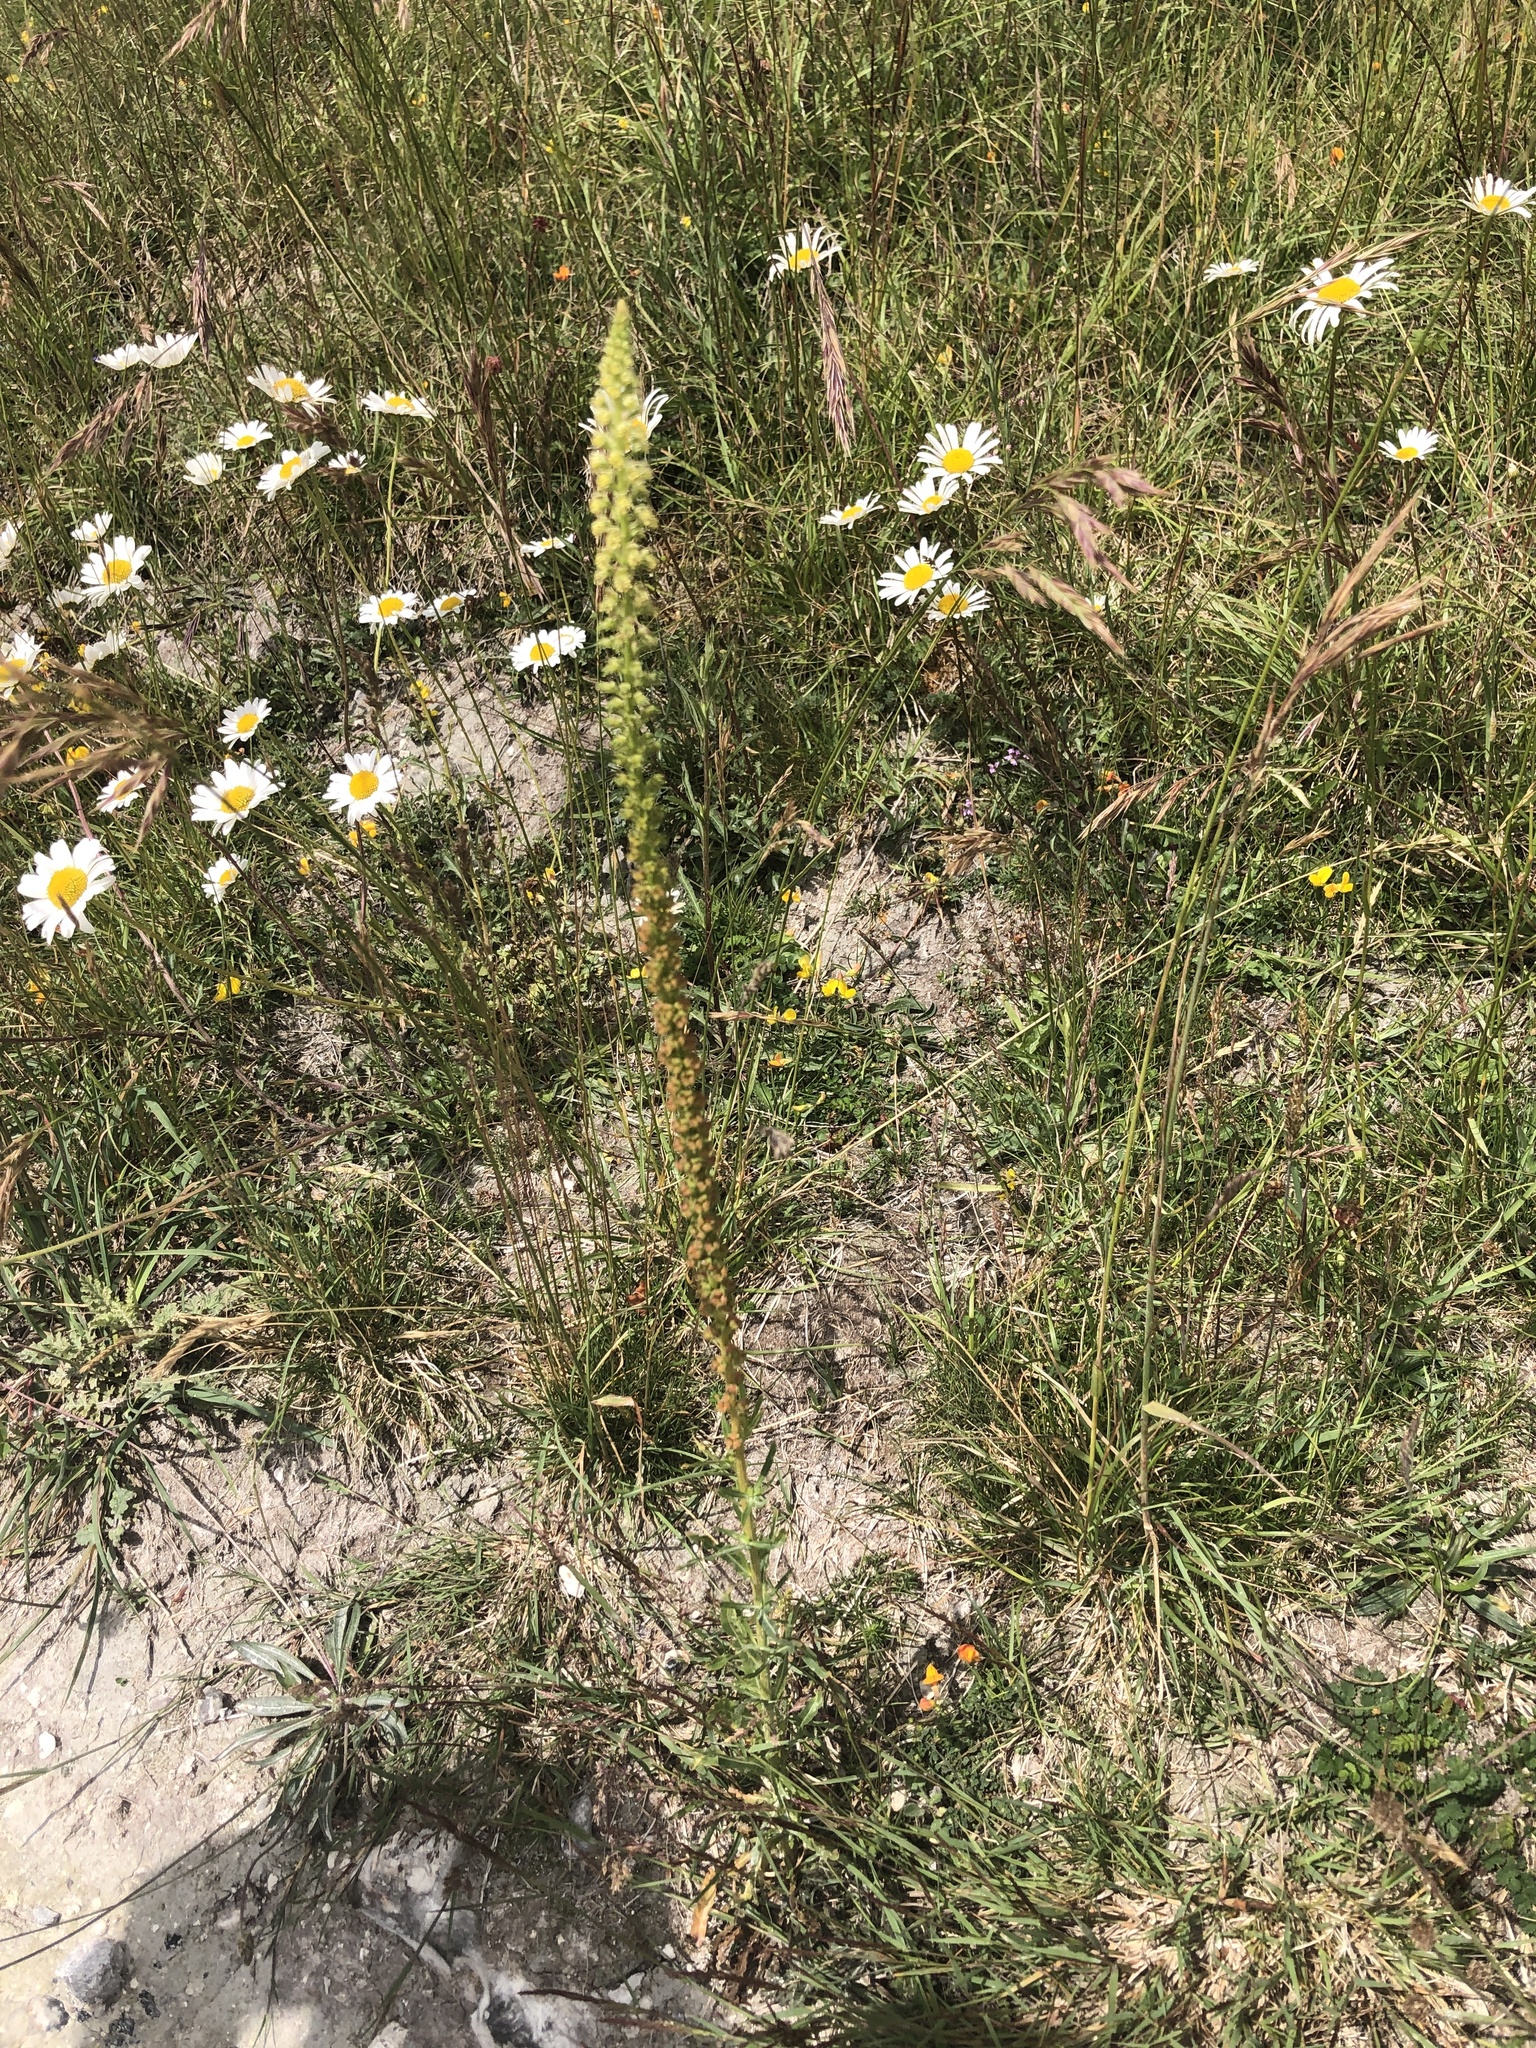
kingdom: Plantae
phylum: Tracheophyta
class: Magnoliopsida
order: Brassicales
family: Resedaceae
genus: Reseda
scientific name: Reseda luteola
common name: Weld
